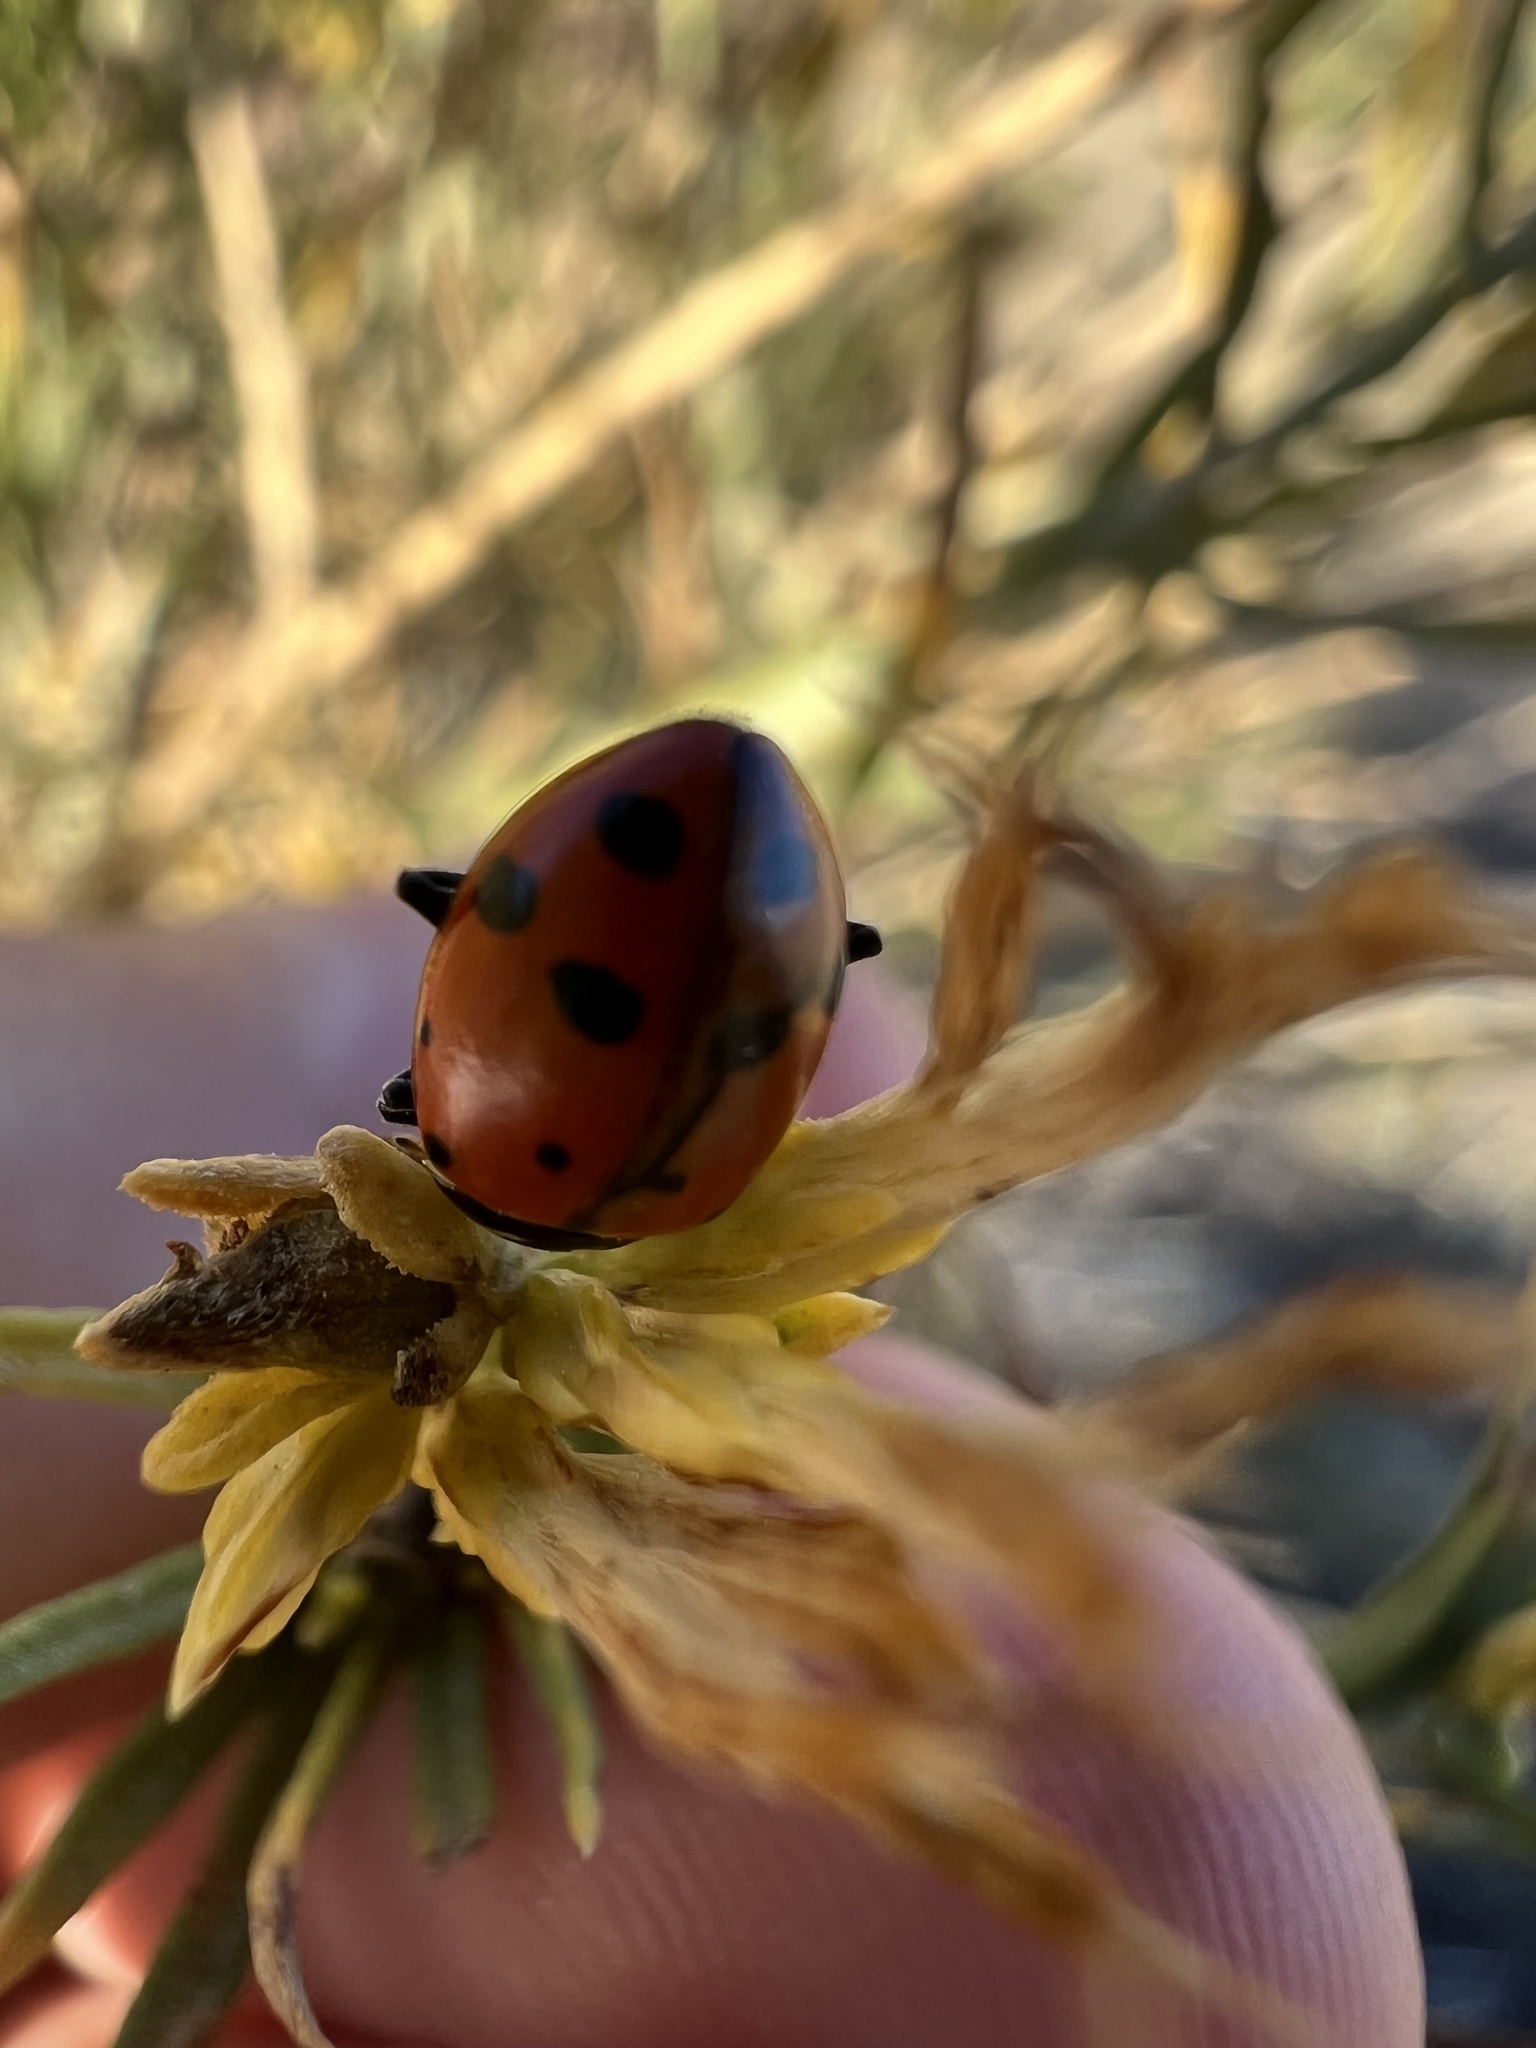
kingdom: Animalia
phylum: Arthropoda
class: Insecta
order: Coleoptera
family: Coccinellidae
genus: Hippodamia
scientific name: Hippodamia convergens
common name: Convergent lady beetle
